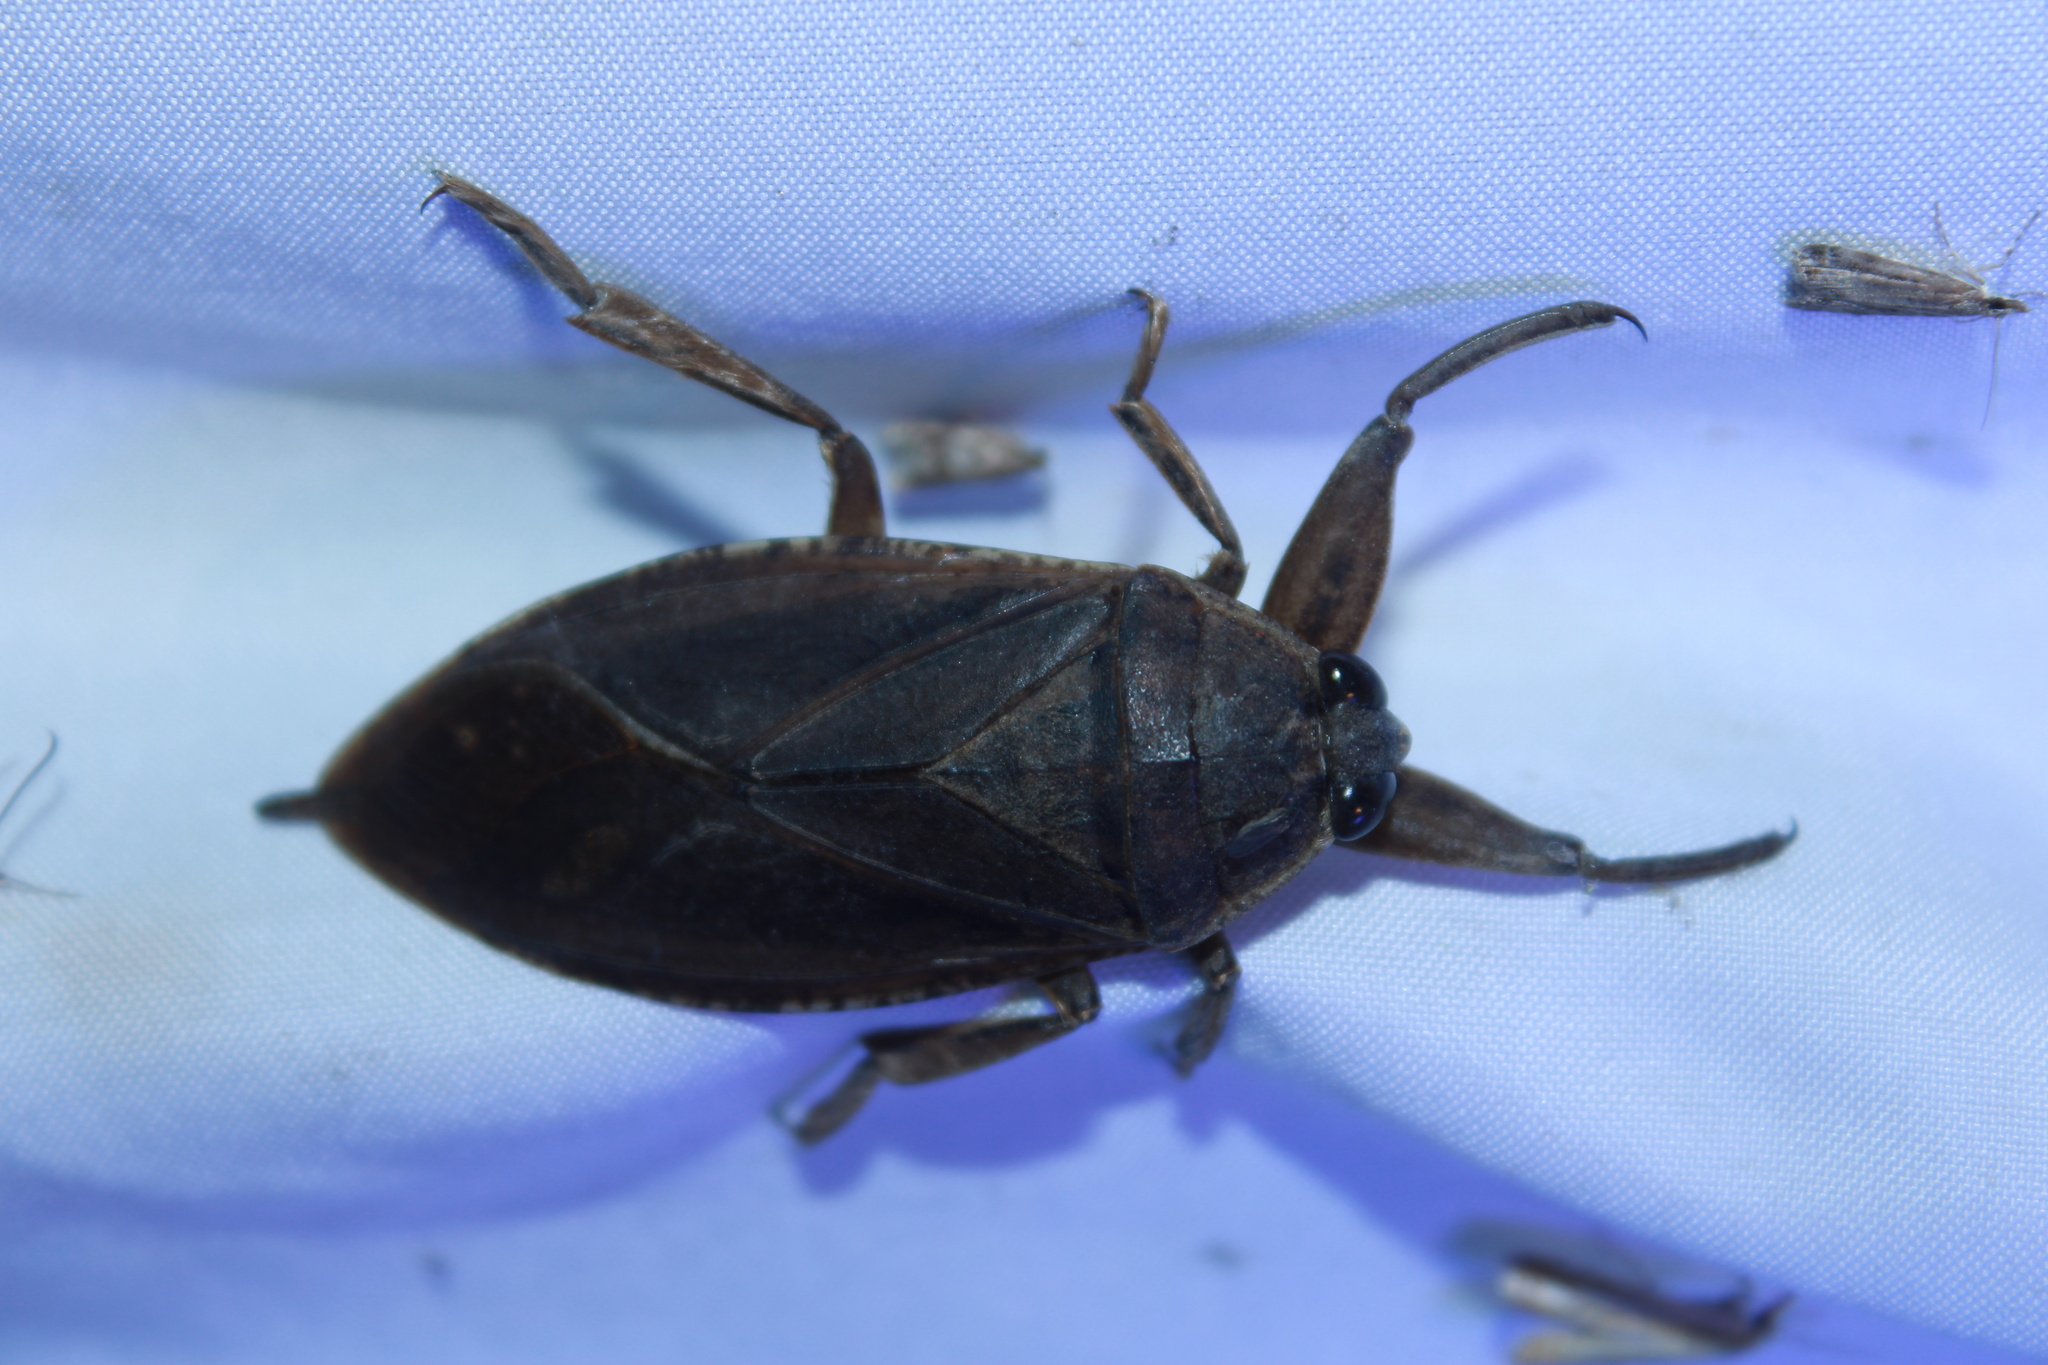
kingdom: Animalia
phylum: Arthropoda
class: Insecta
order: Hemiptera
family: Belostomatidae
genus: Lethocerus
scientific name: Lethocerus americanus
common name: Giant water bug
